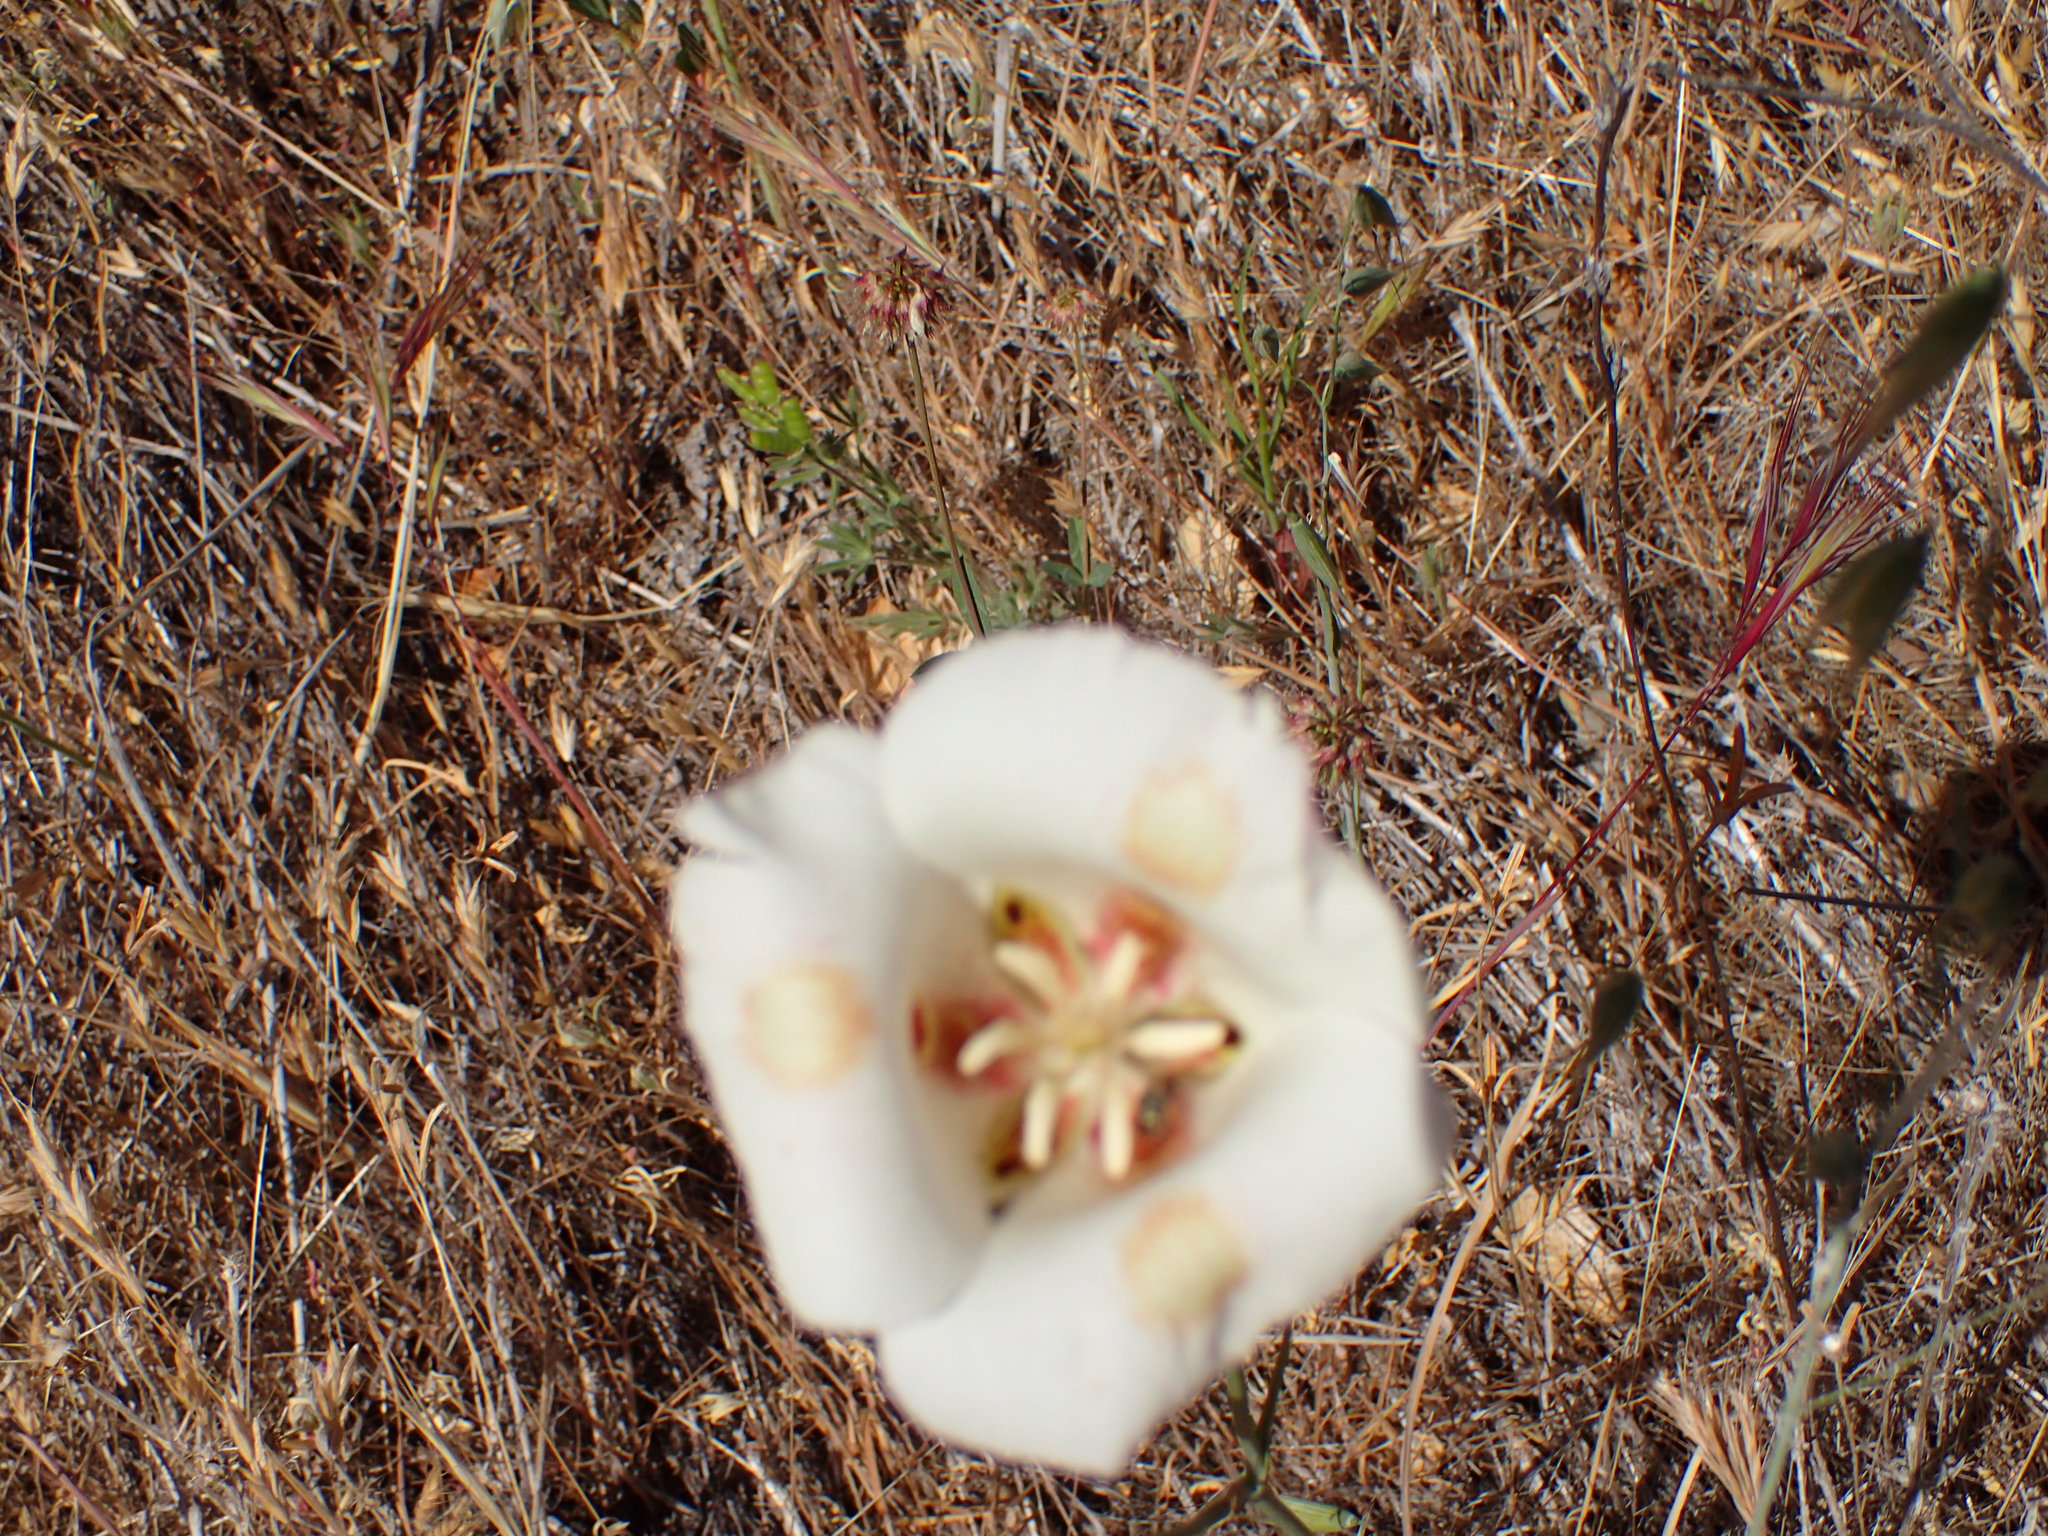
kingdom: Plantae
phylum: Tracheophyta
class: Liliopsida
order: Liliales
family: Liliaceae
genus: Calochortus
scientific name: Calochortus venustus
